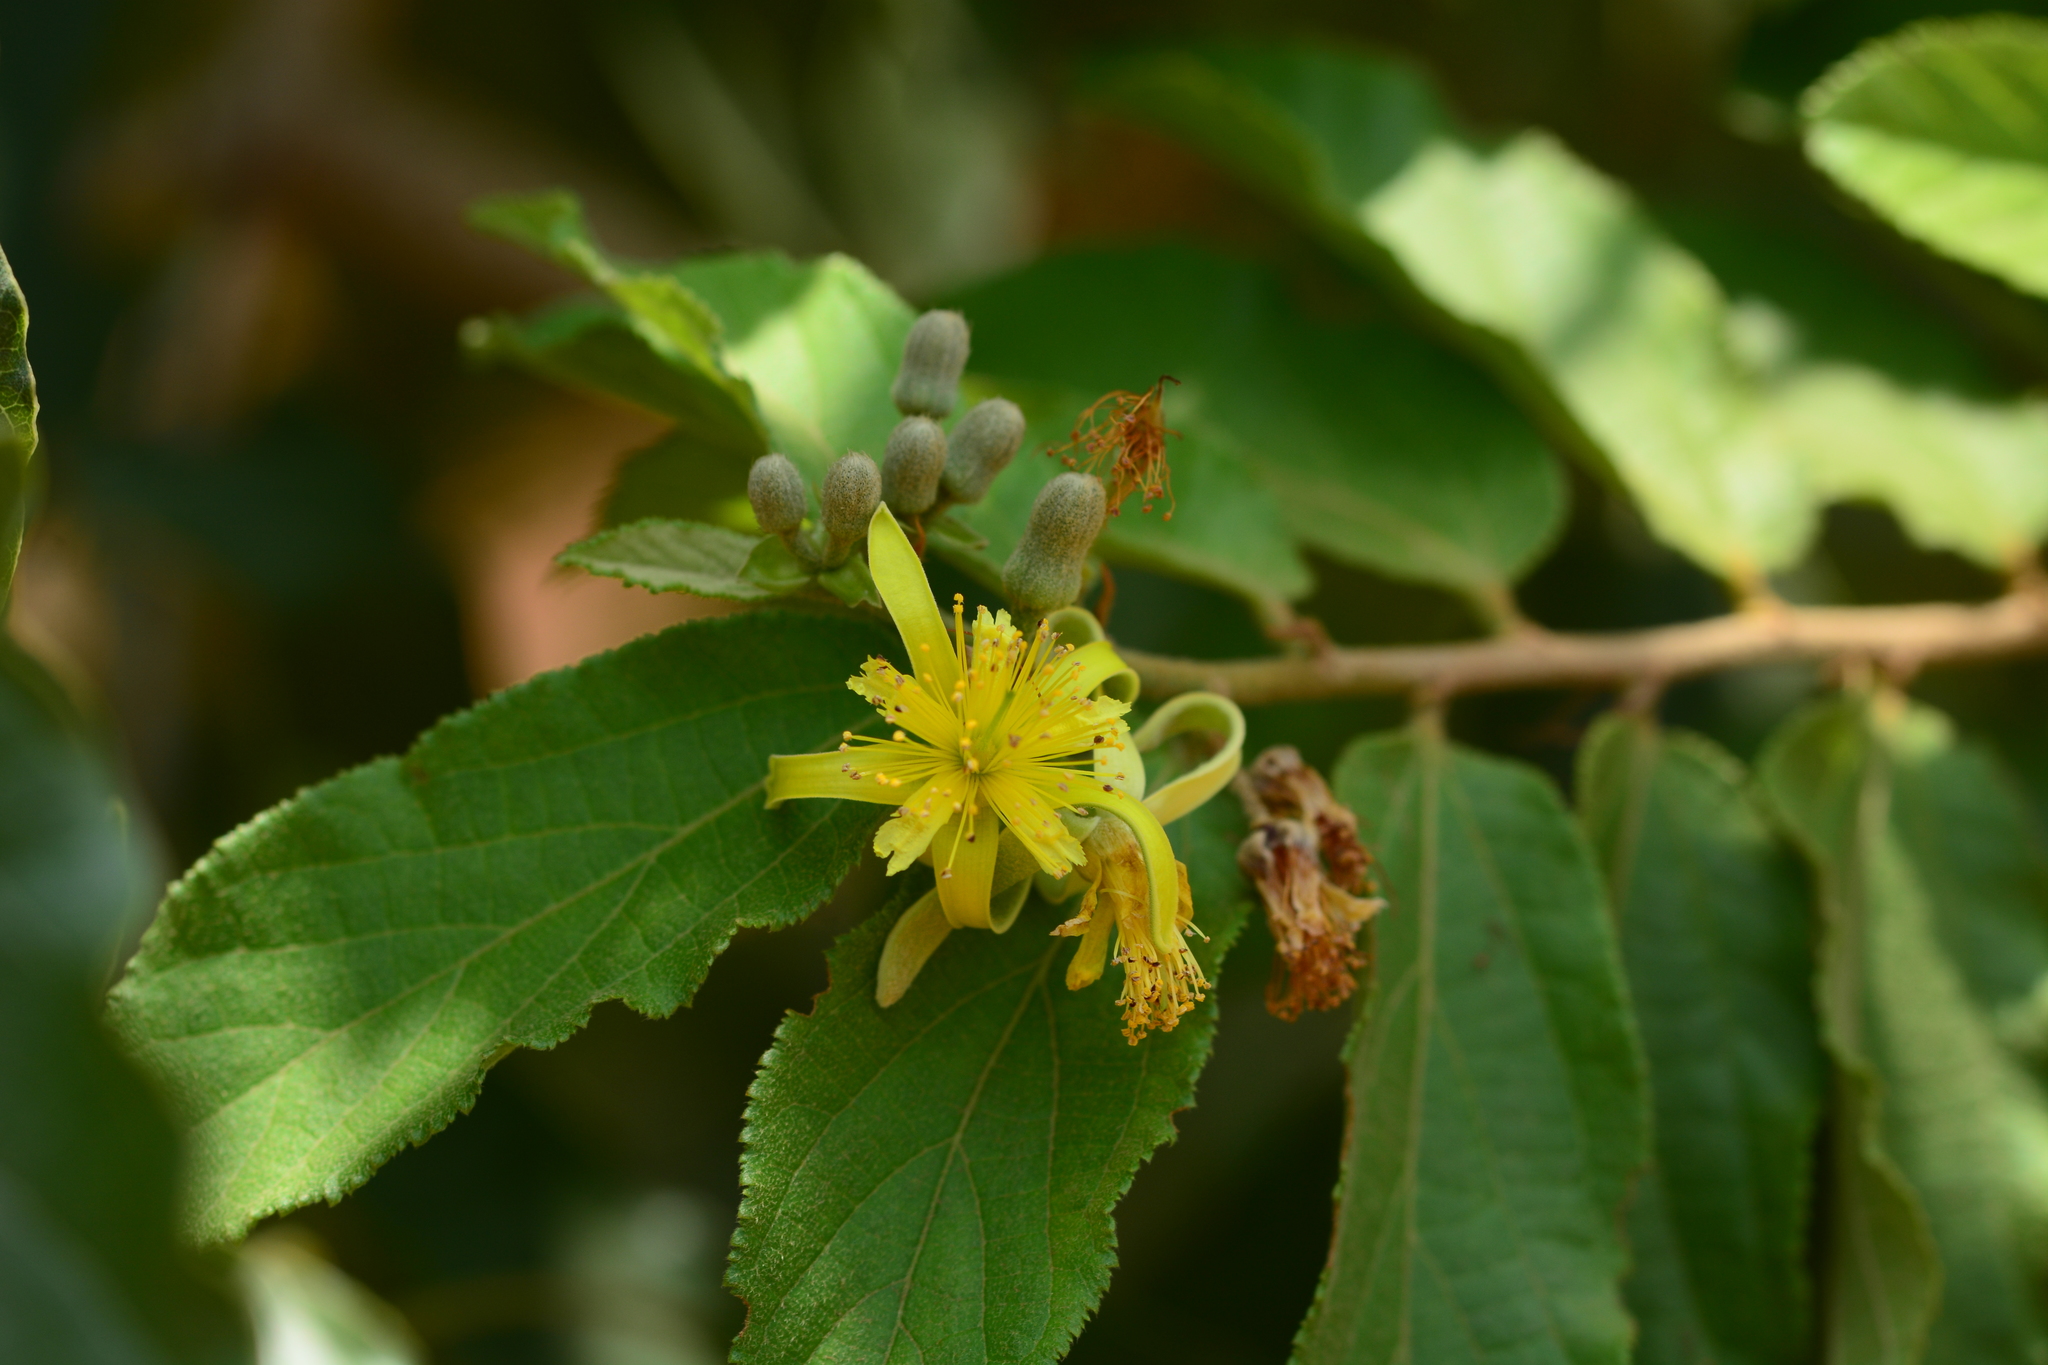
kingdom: Plantae
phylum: Tracheophyta
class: Magnoliopsida
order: Malvales
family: Malvaceae
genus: Grewia
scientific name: Grewia flavescens
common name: Sandpaper raisin
